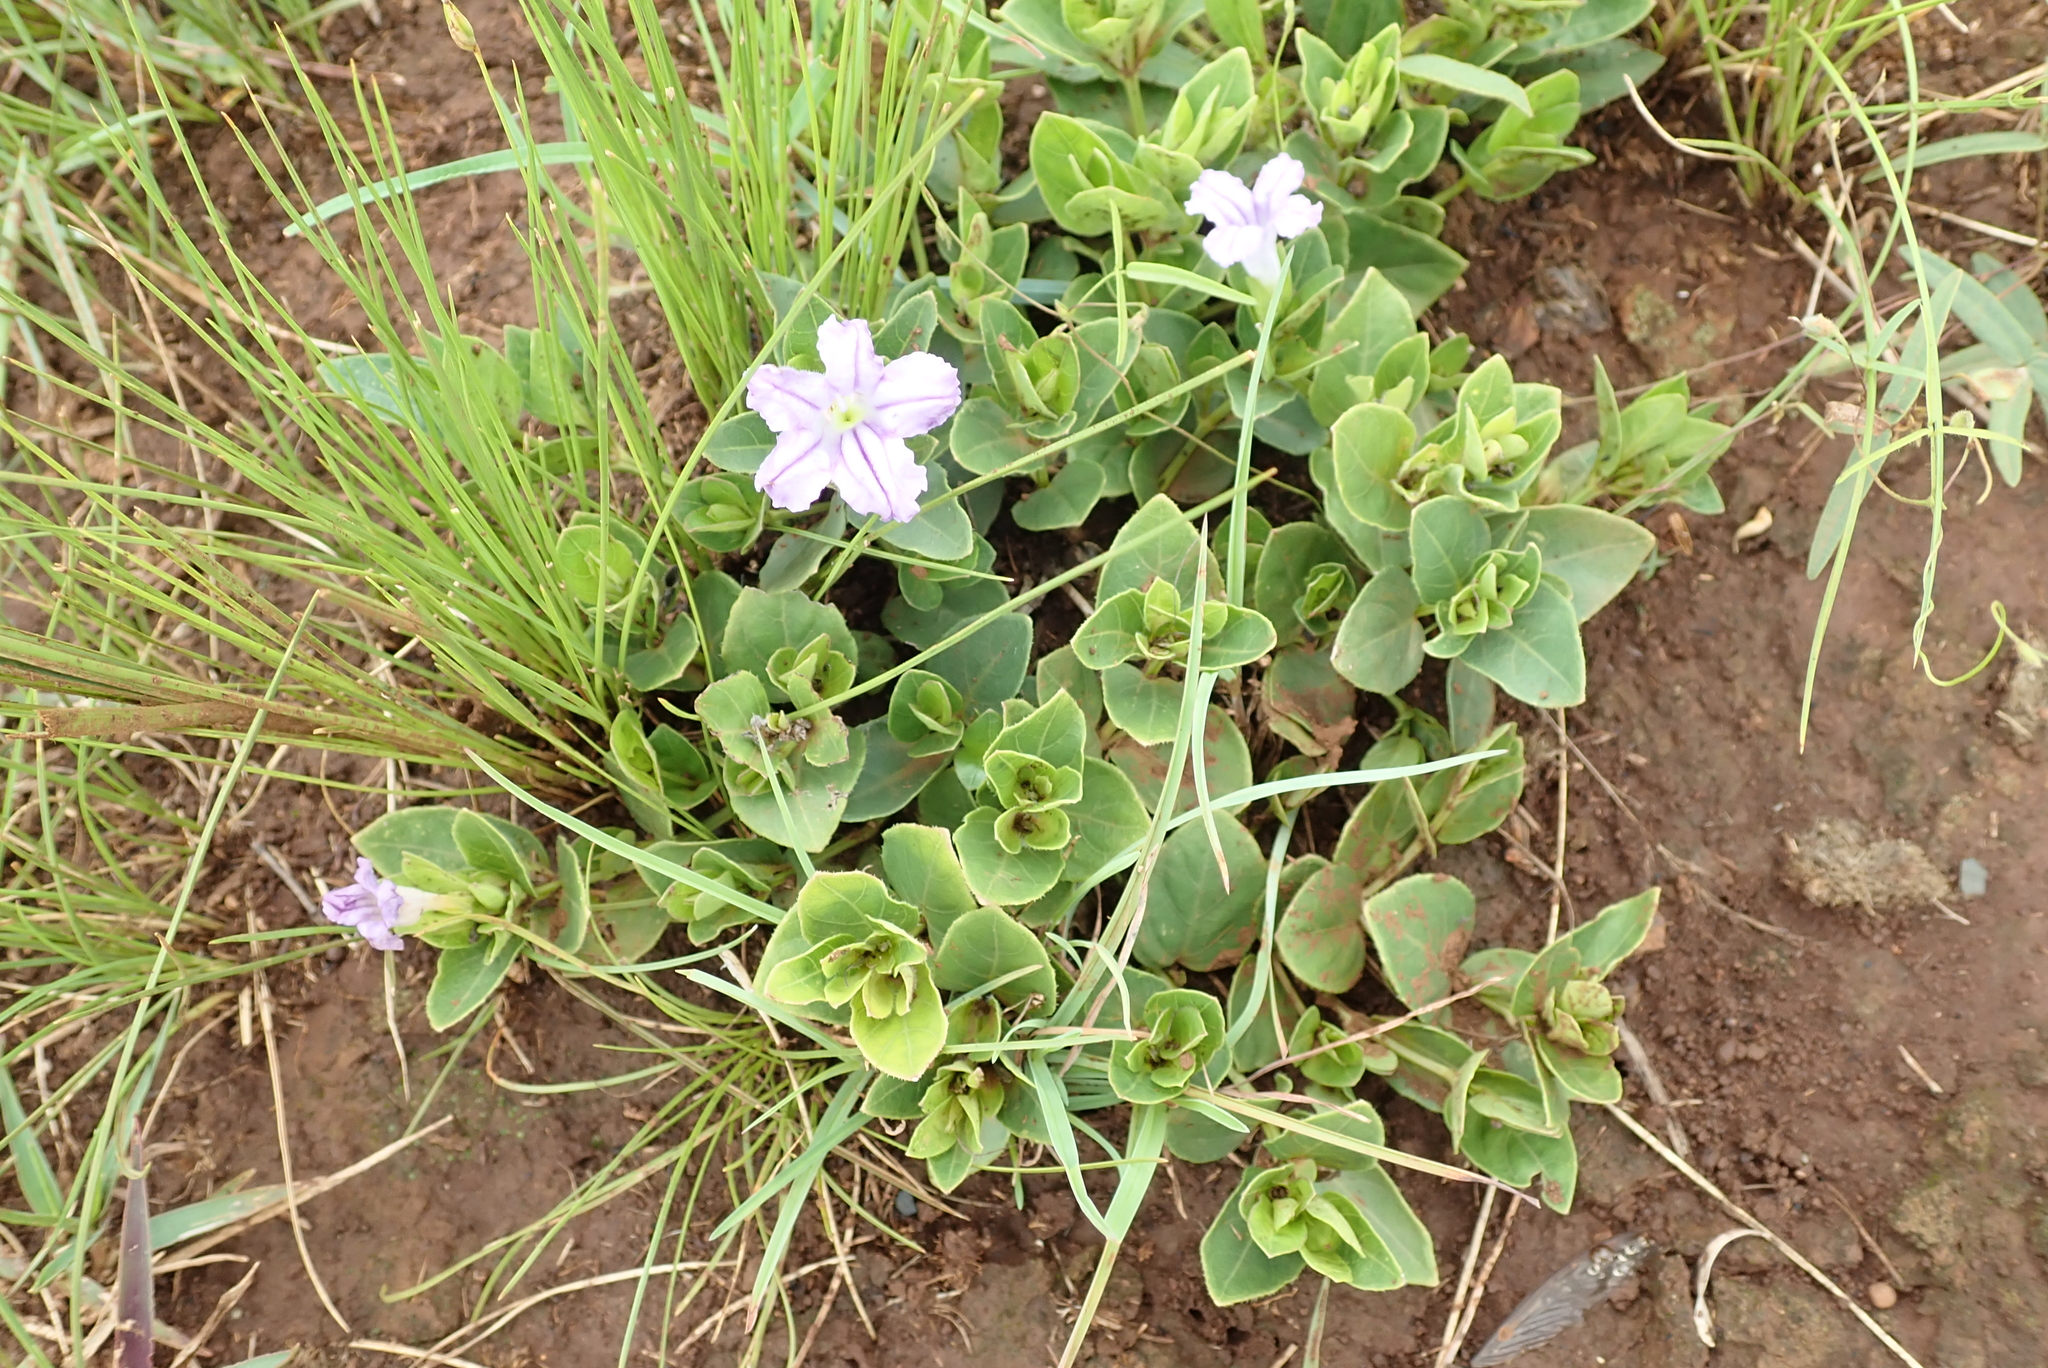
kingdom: Plantae
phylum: Tracheophyta
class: Magnoliopsida
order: Lamiales
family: Acanthaceae
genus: Ruellia
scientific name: Ruellia cordata
